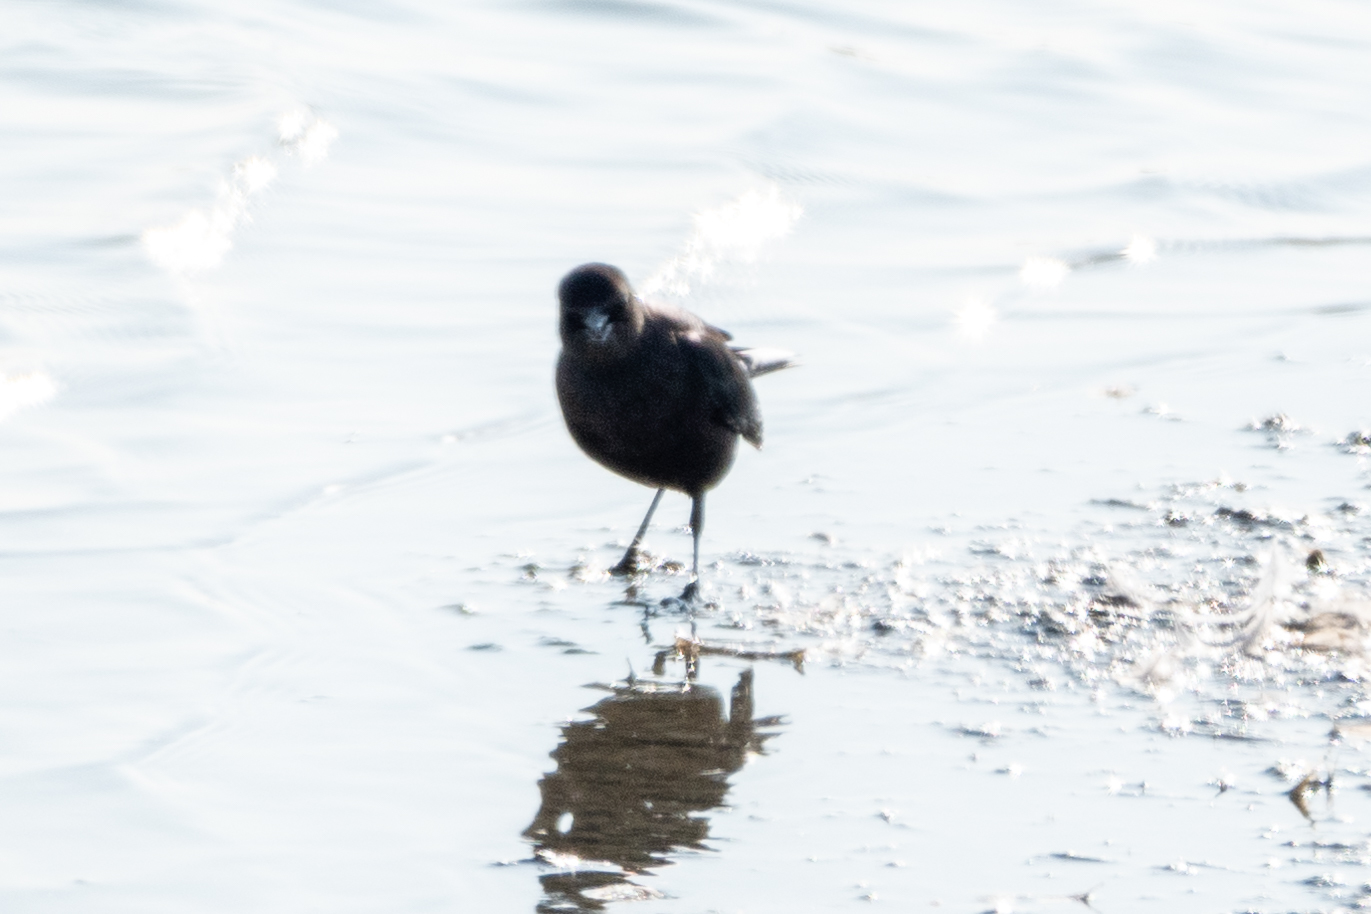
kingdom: Animalia
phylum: Chordata
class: Aves
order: Passeriformes
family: Icteridae
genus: Euphagus
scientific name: Euphagus cyanocephalus
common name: Brewer's blackbird
